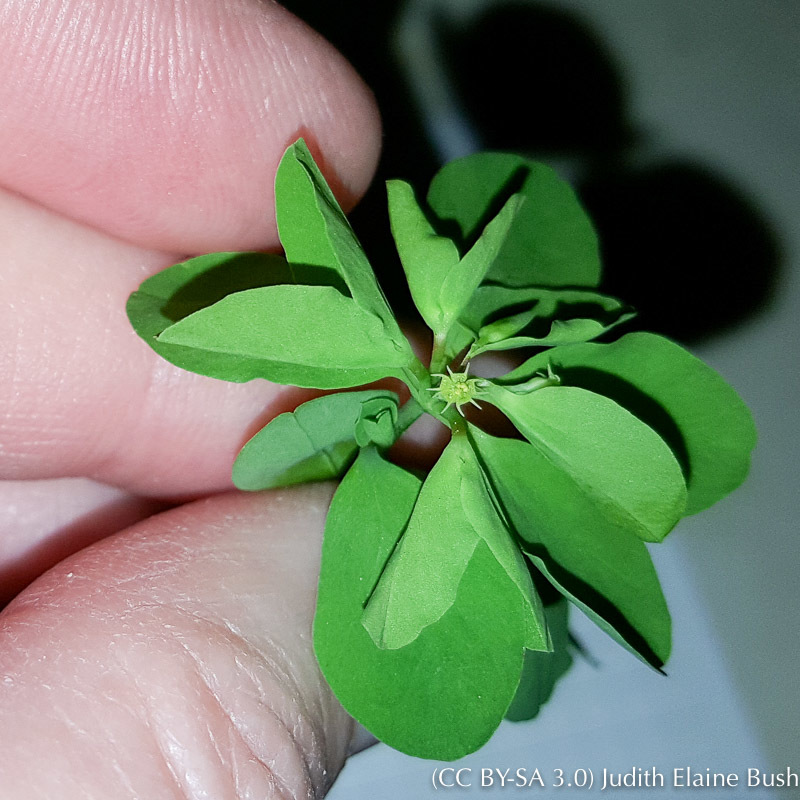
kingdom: Plantae
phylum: Tracheophyta
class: Magnoliopsida
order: Malpighiales
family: Euphorbiaceae
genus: Euphorbia
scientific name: Euphorbia peplus
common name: Petty spurge
